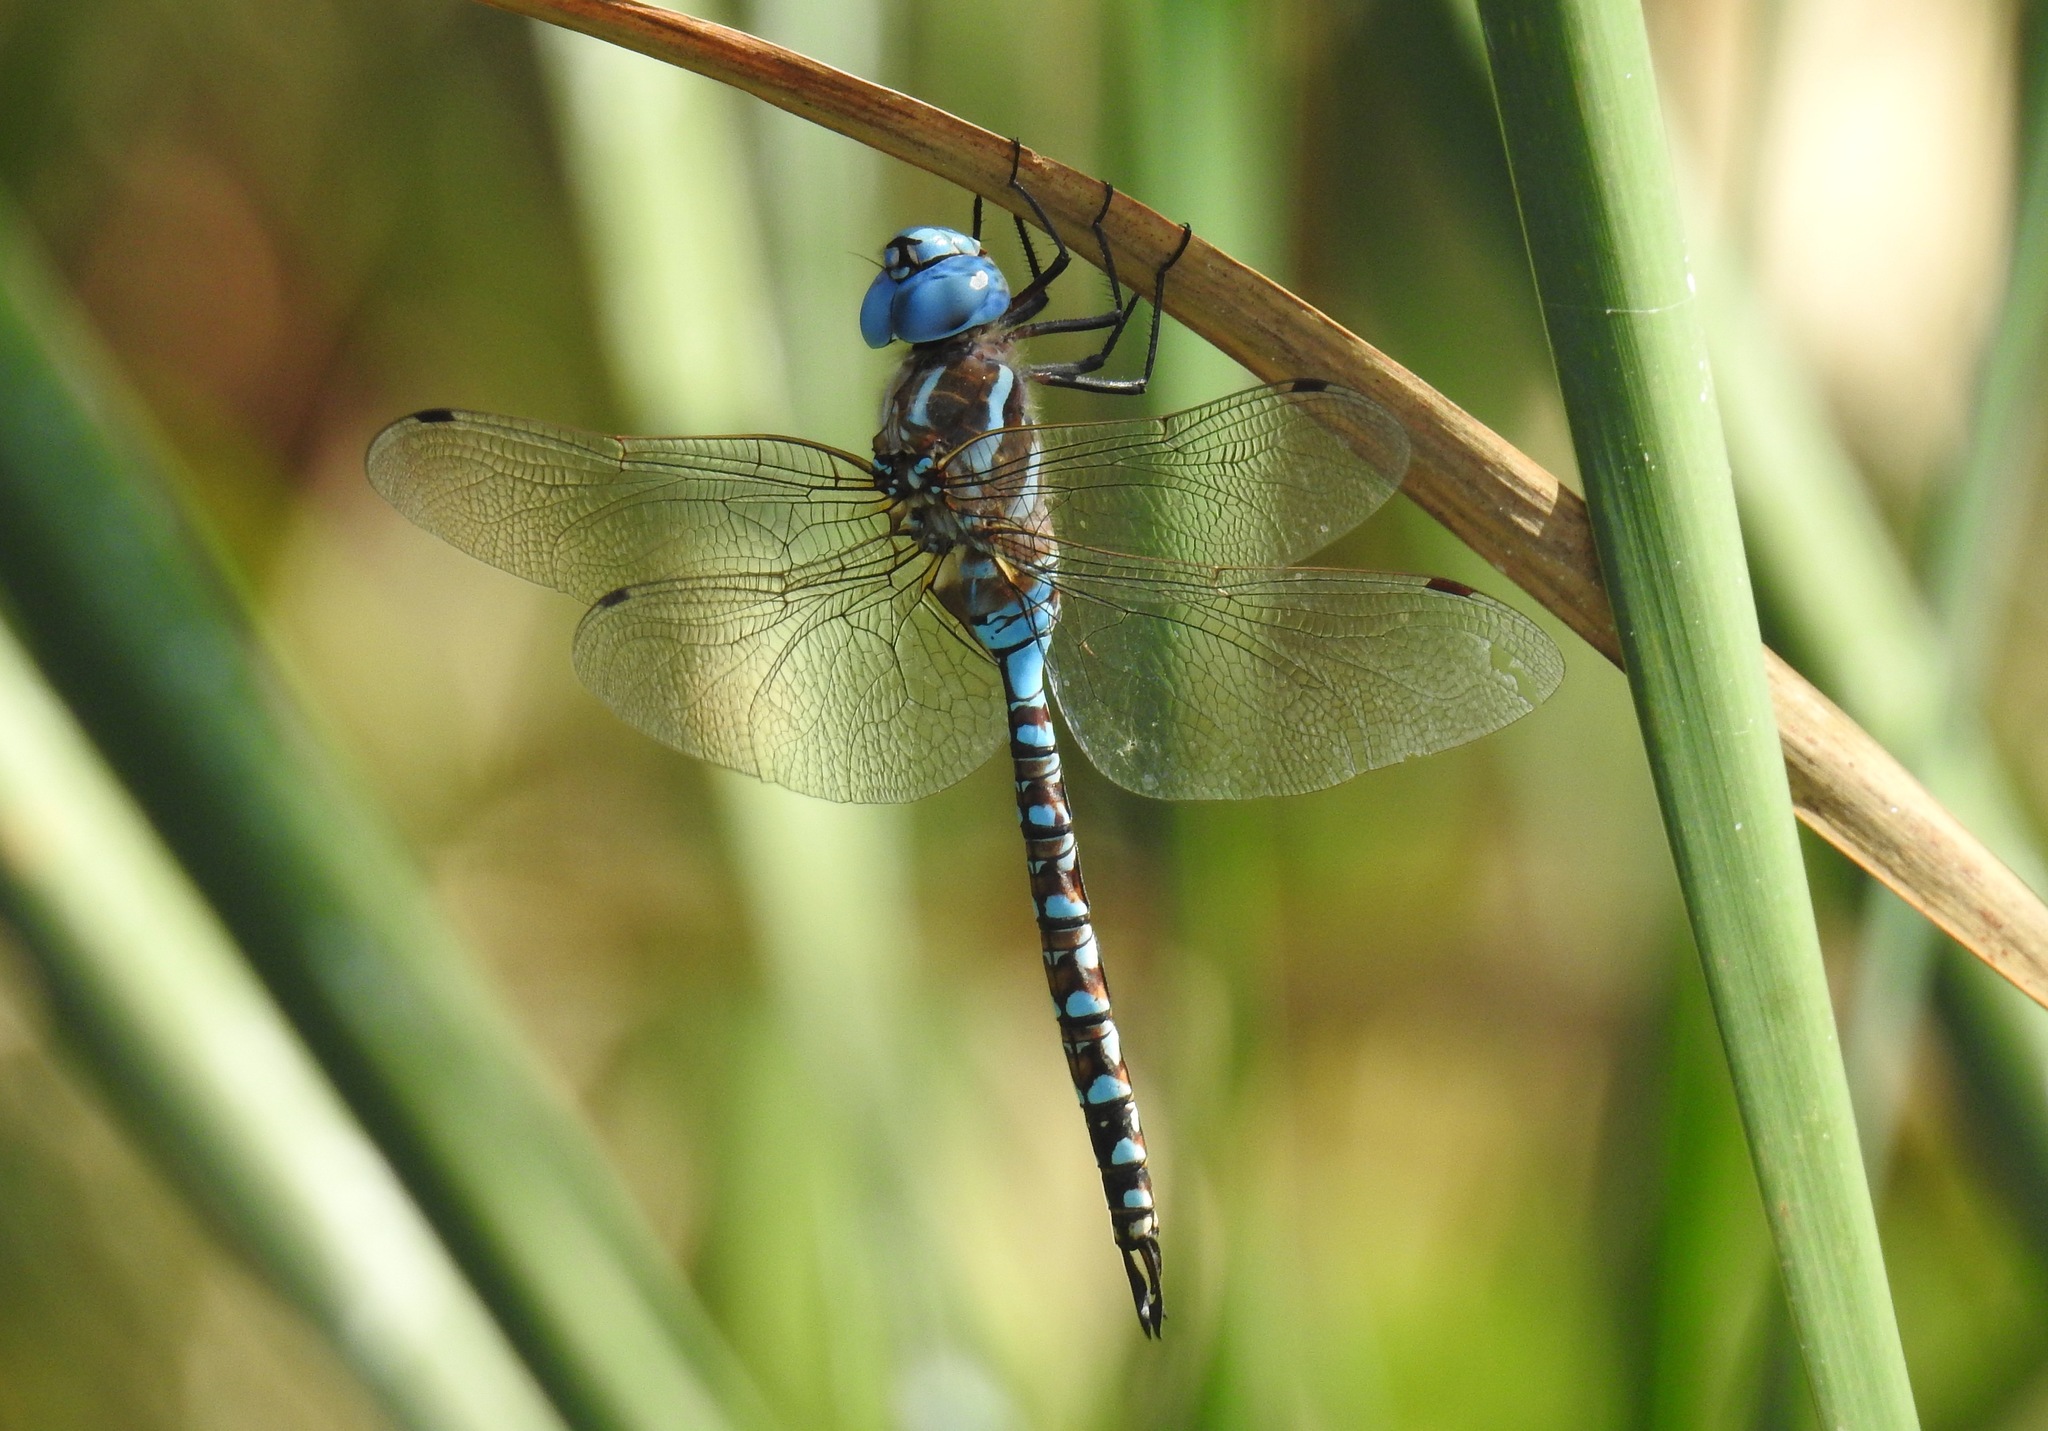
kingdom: Animalia
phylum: Arthropoda
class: Insecta
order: Odonata
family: Aeshnidae
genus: Rhionaeschna
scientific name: Rhionaeschna multicolor
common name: Blue-eyed darner
